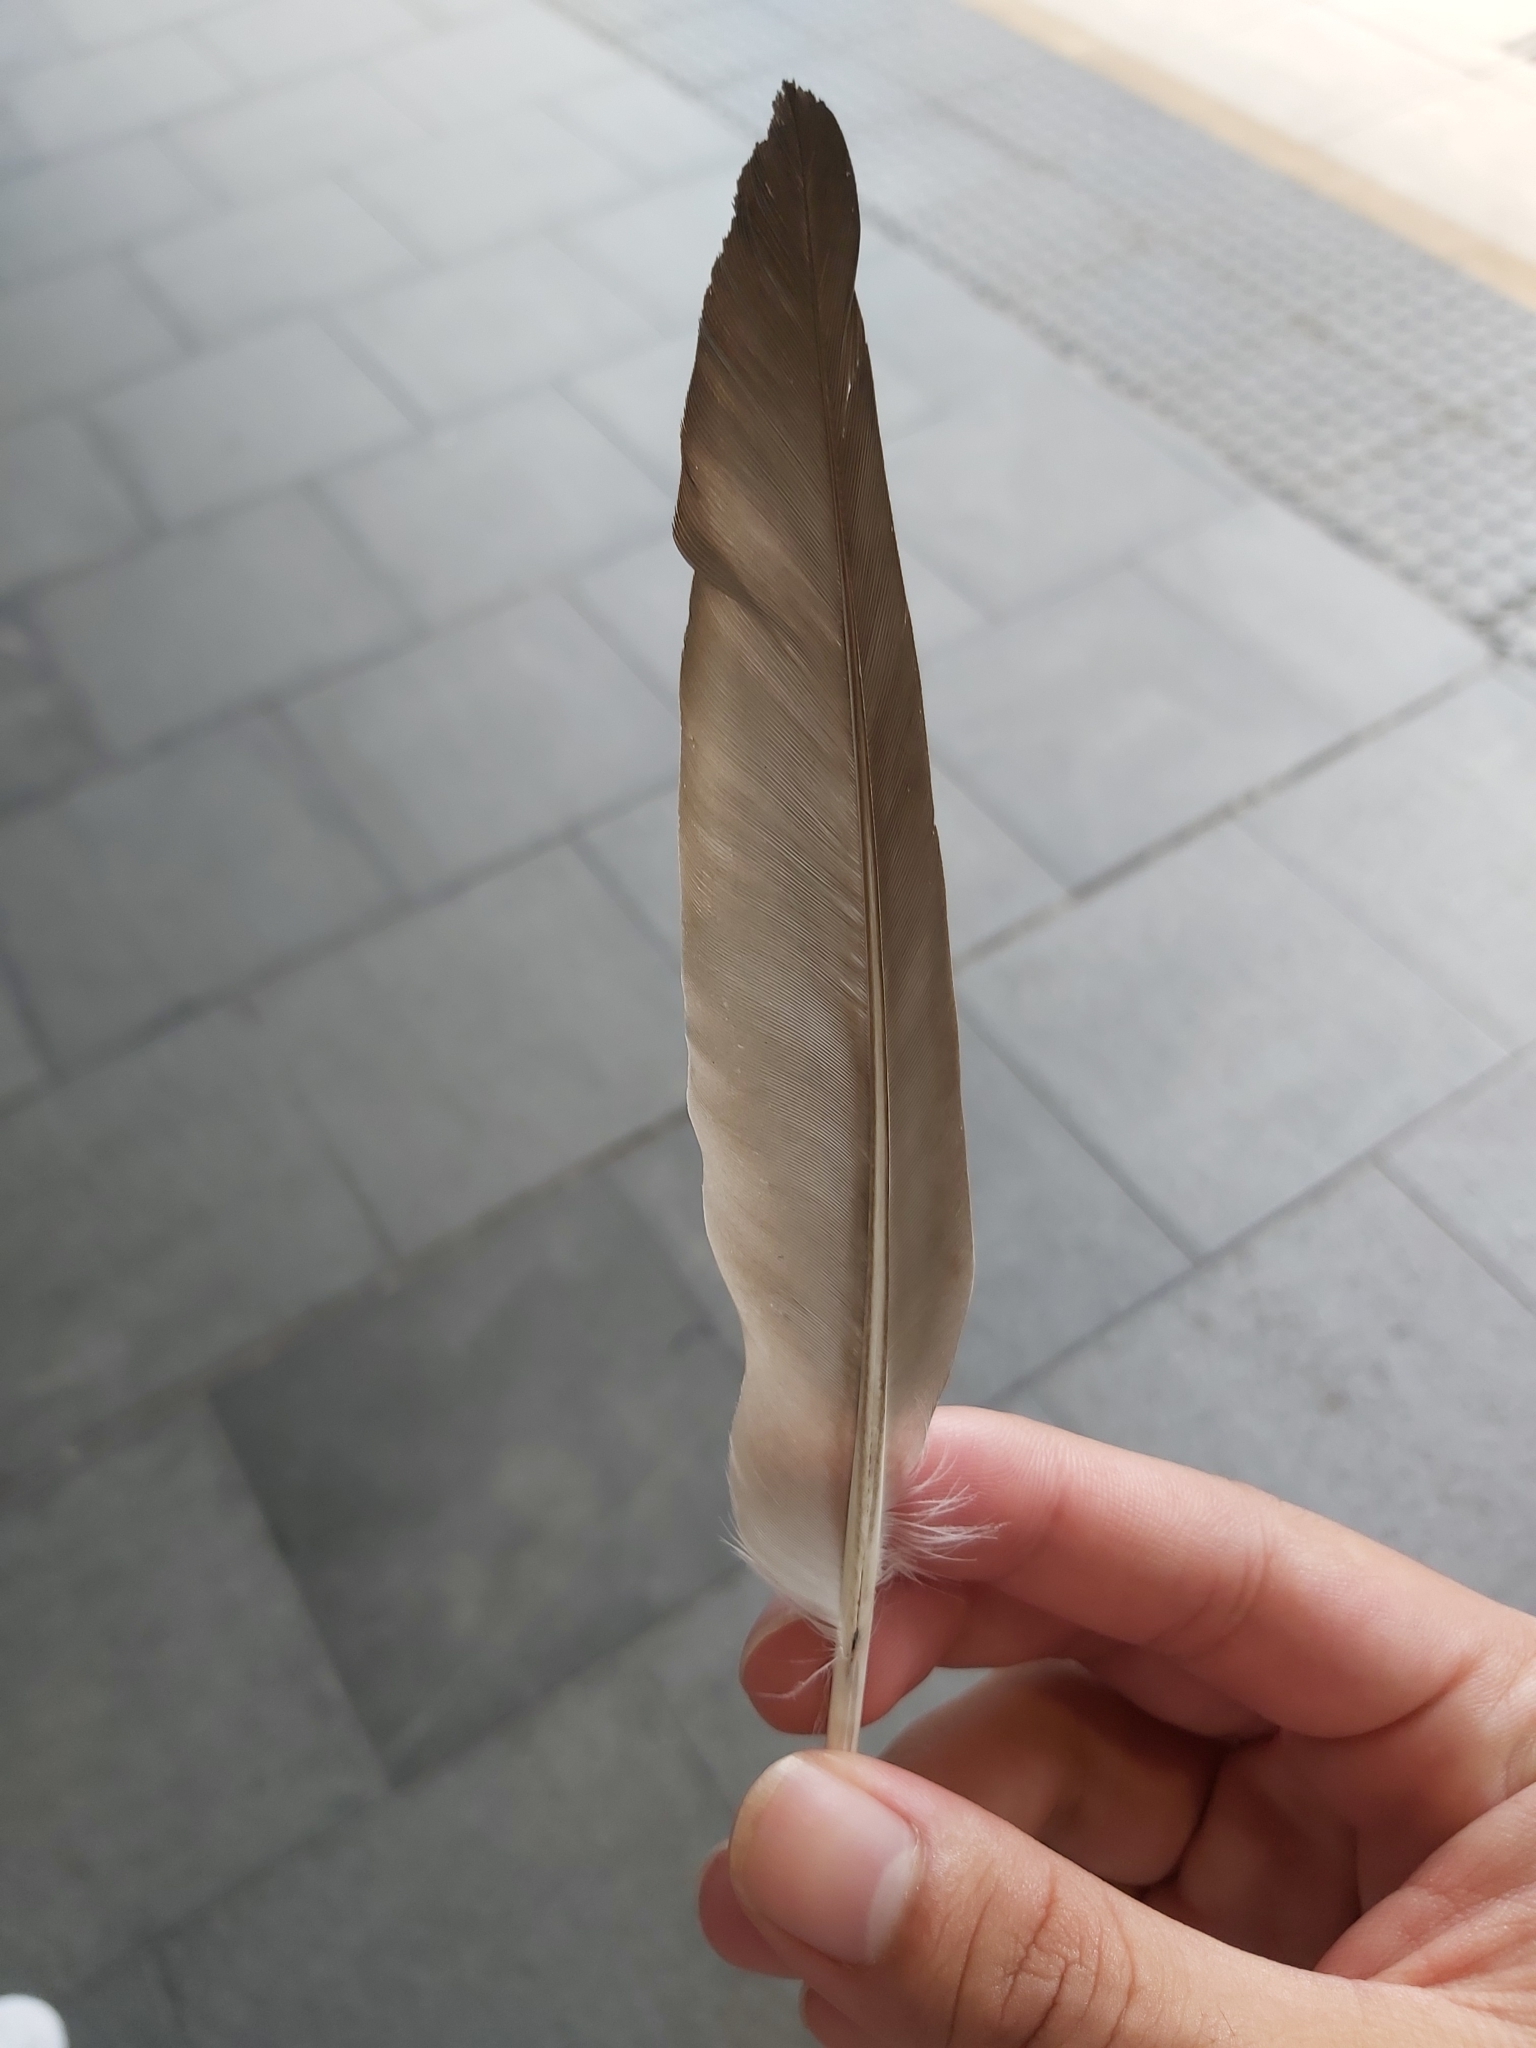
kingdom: Animalia
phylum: Chordata
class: Aves
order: Columbiformes
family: Columbidae
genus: Columba
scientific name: Columba livia
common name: Rock pigeon
